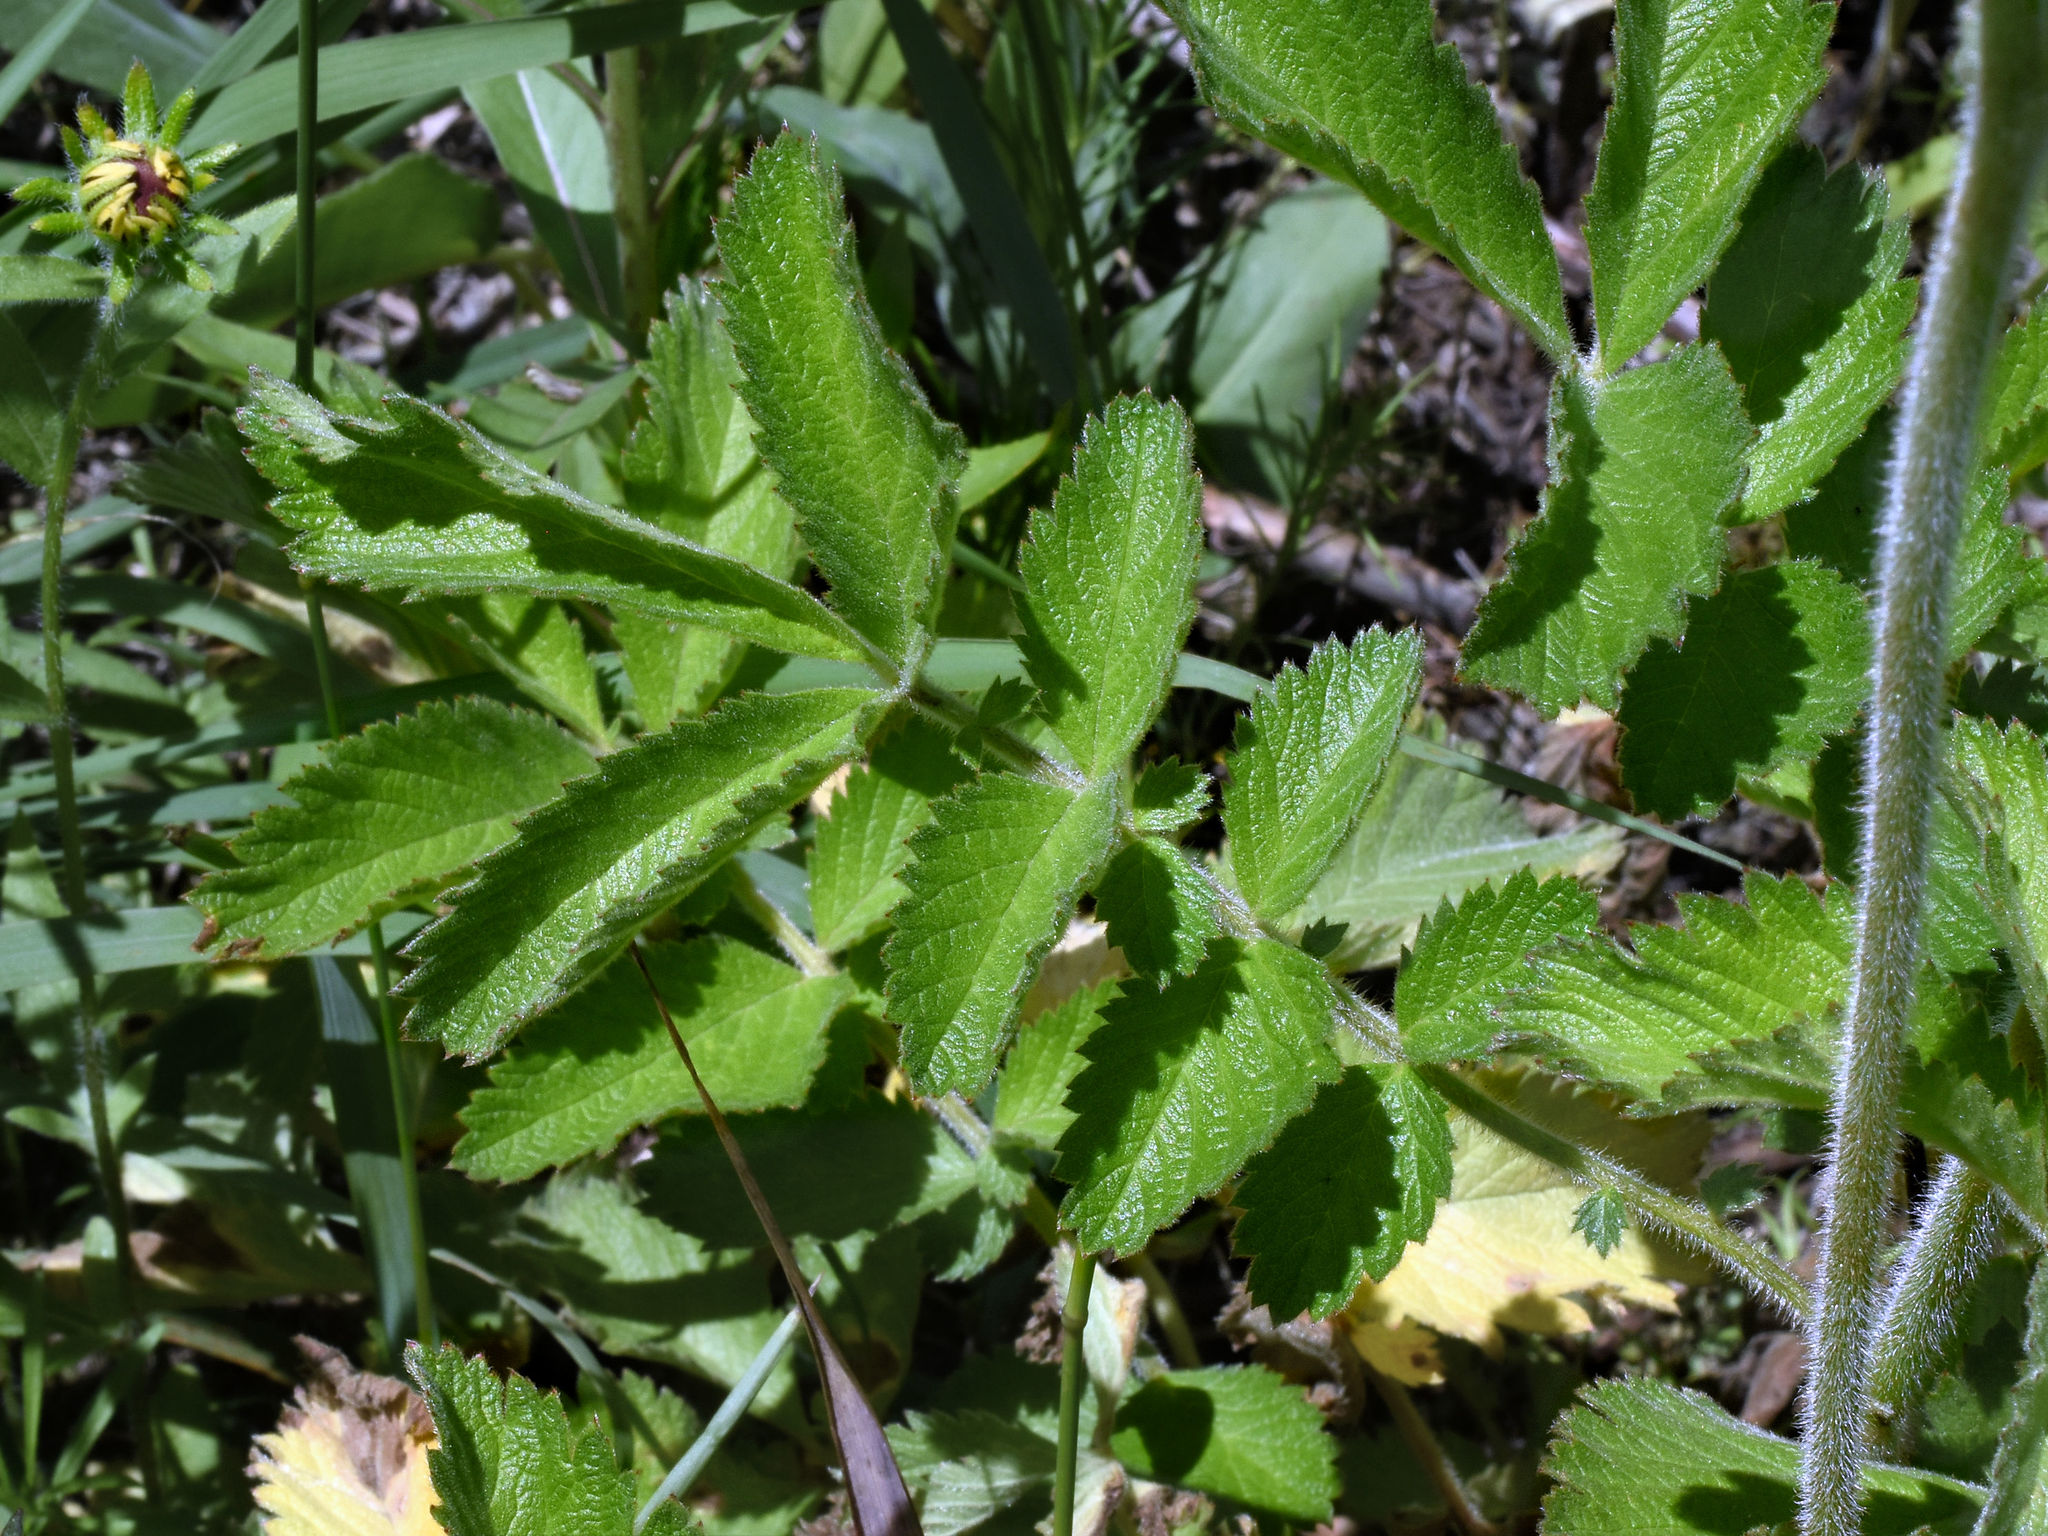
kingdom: Plantae
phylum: Tracheophyta
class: Magnoliopsida
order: Rosales
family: Rosaceae
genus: Drymocallis
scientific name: Drymocallis arguta
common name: Tall cinquefoil
